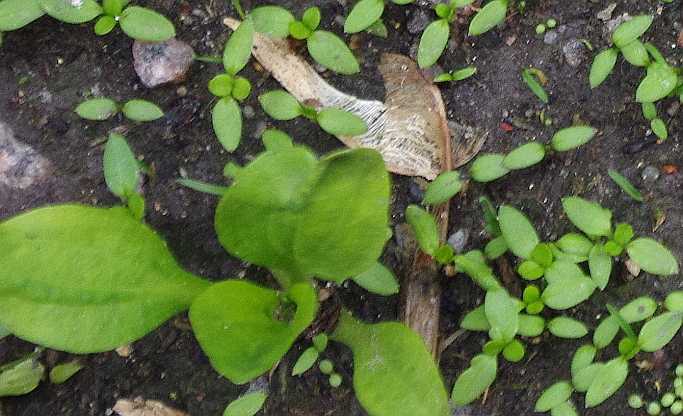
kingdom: Plantae
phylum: Tracheophyta
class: Magnoliopsida
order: Lamiales
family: Plantaginaceae
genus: Plantago
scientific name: Plantago major
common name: Common plantain
